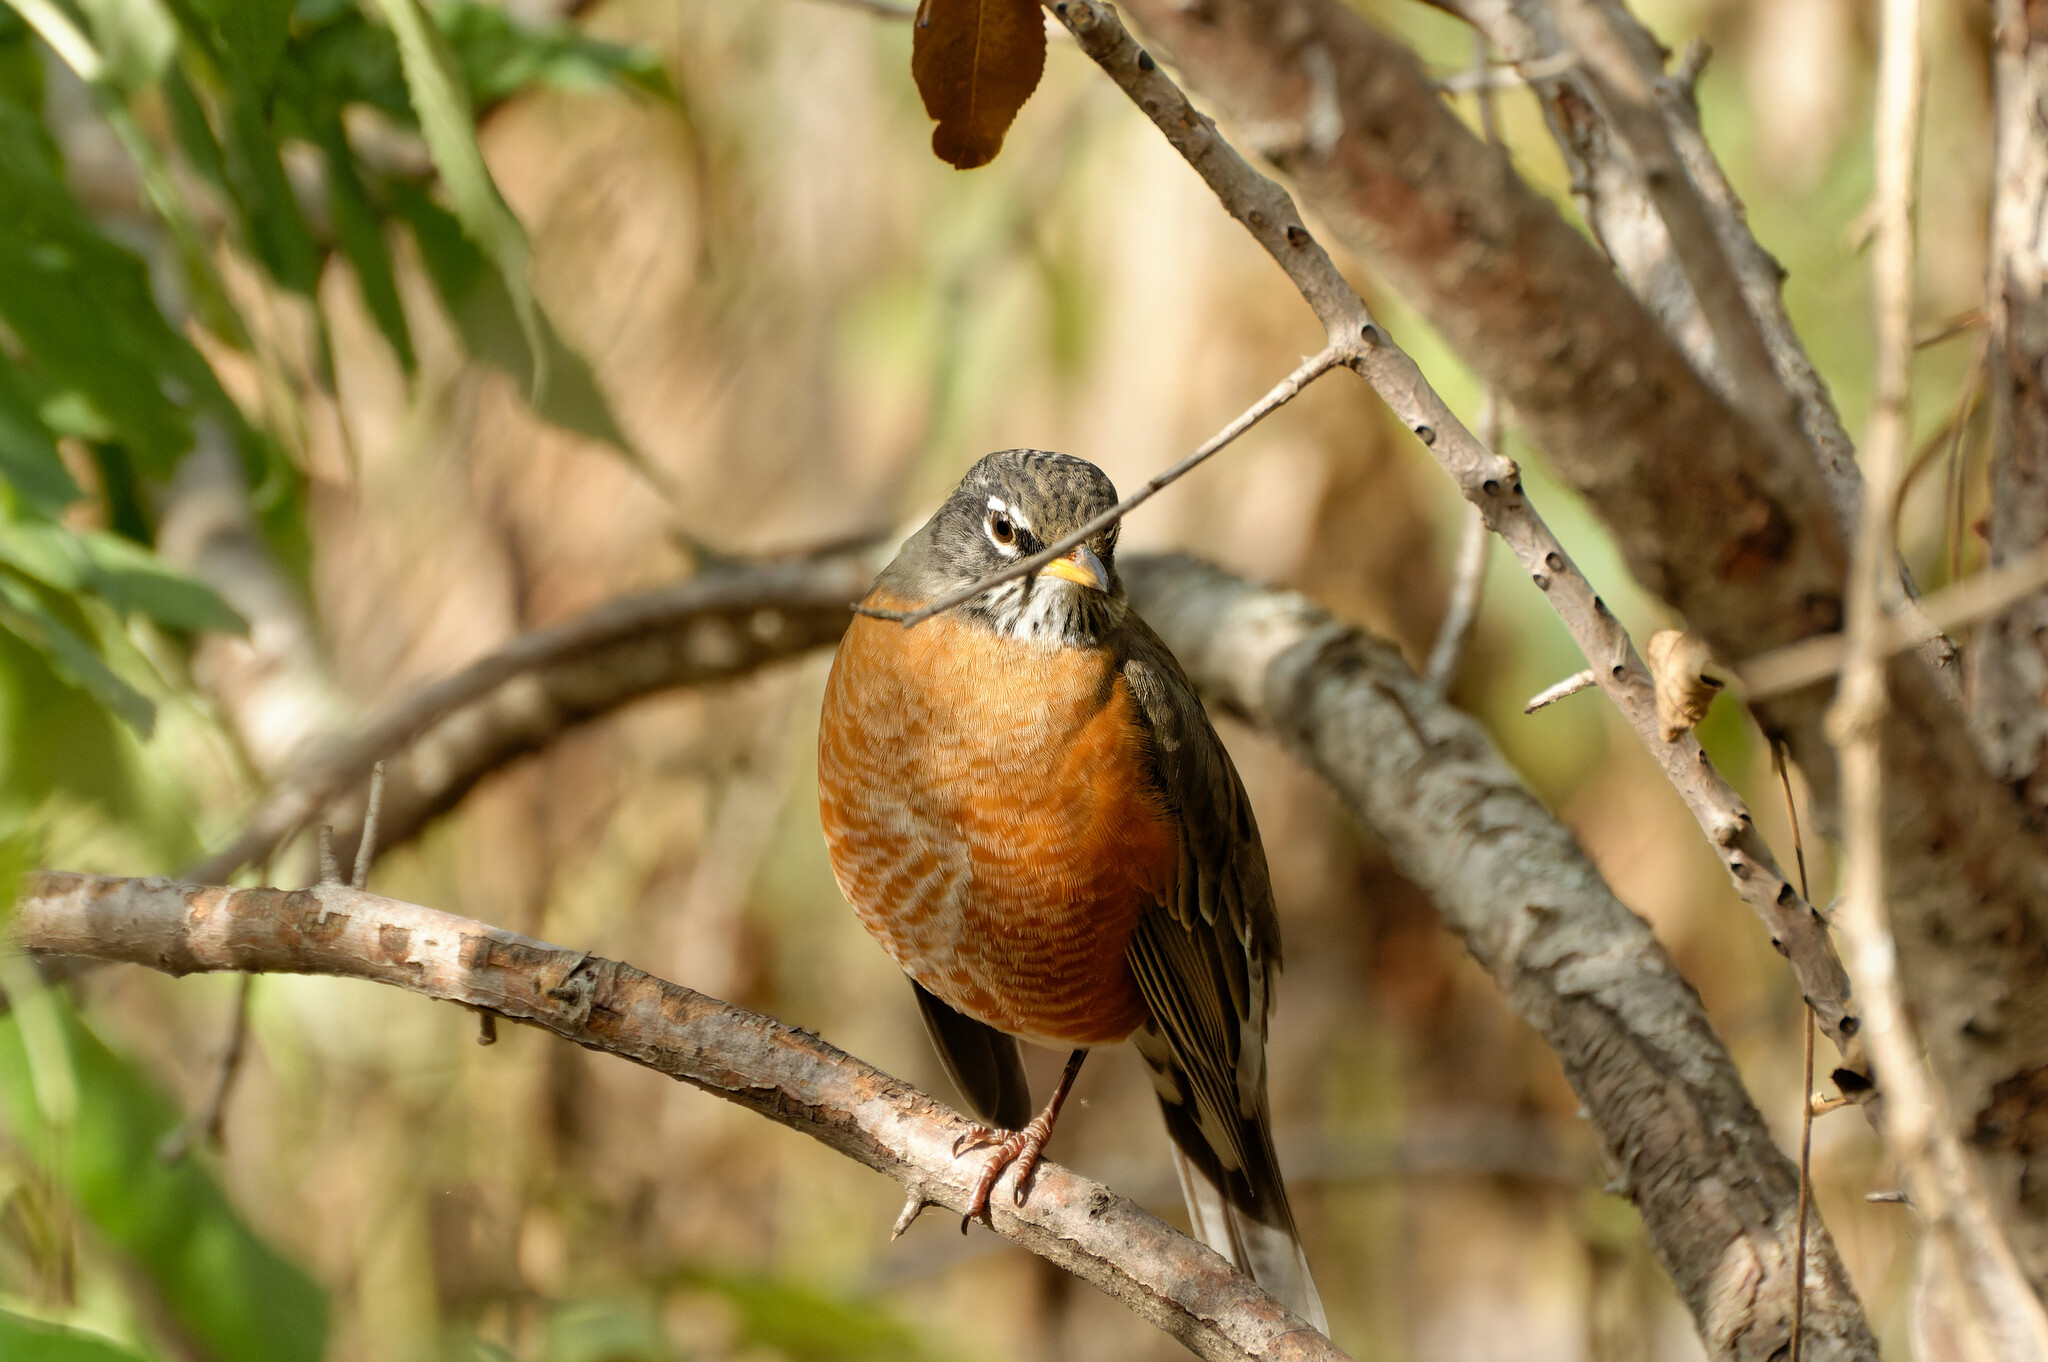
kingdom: Animalia
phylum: Chordata
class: Aves
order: Passeriformes
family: Turdidae
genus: Turdus
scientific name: Turdus migratorius
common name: American robin
